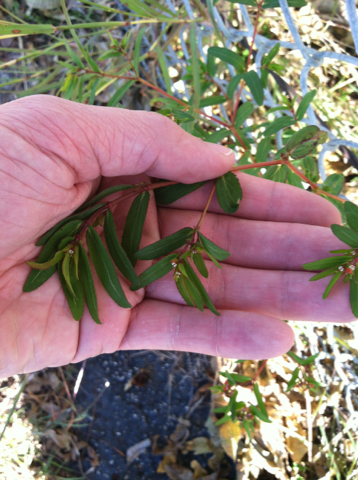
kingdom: Plantae
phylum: Tracheophyta
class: Magnoliopsida
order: Malpighiales
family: Euphorbiaceae
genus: Euphorbia
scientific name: Euphorbia hyssopifolia
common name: Hyssopleaf sandmat
